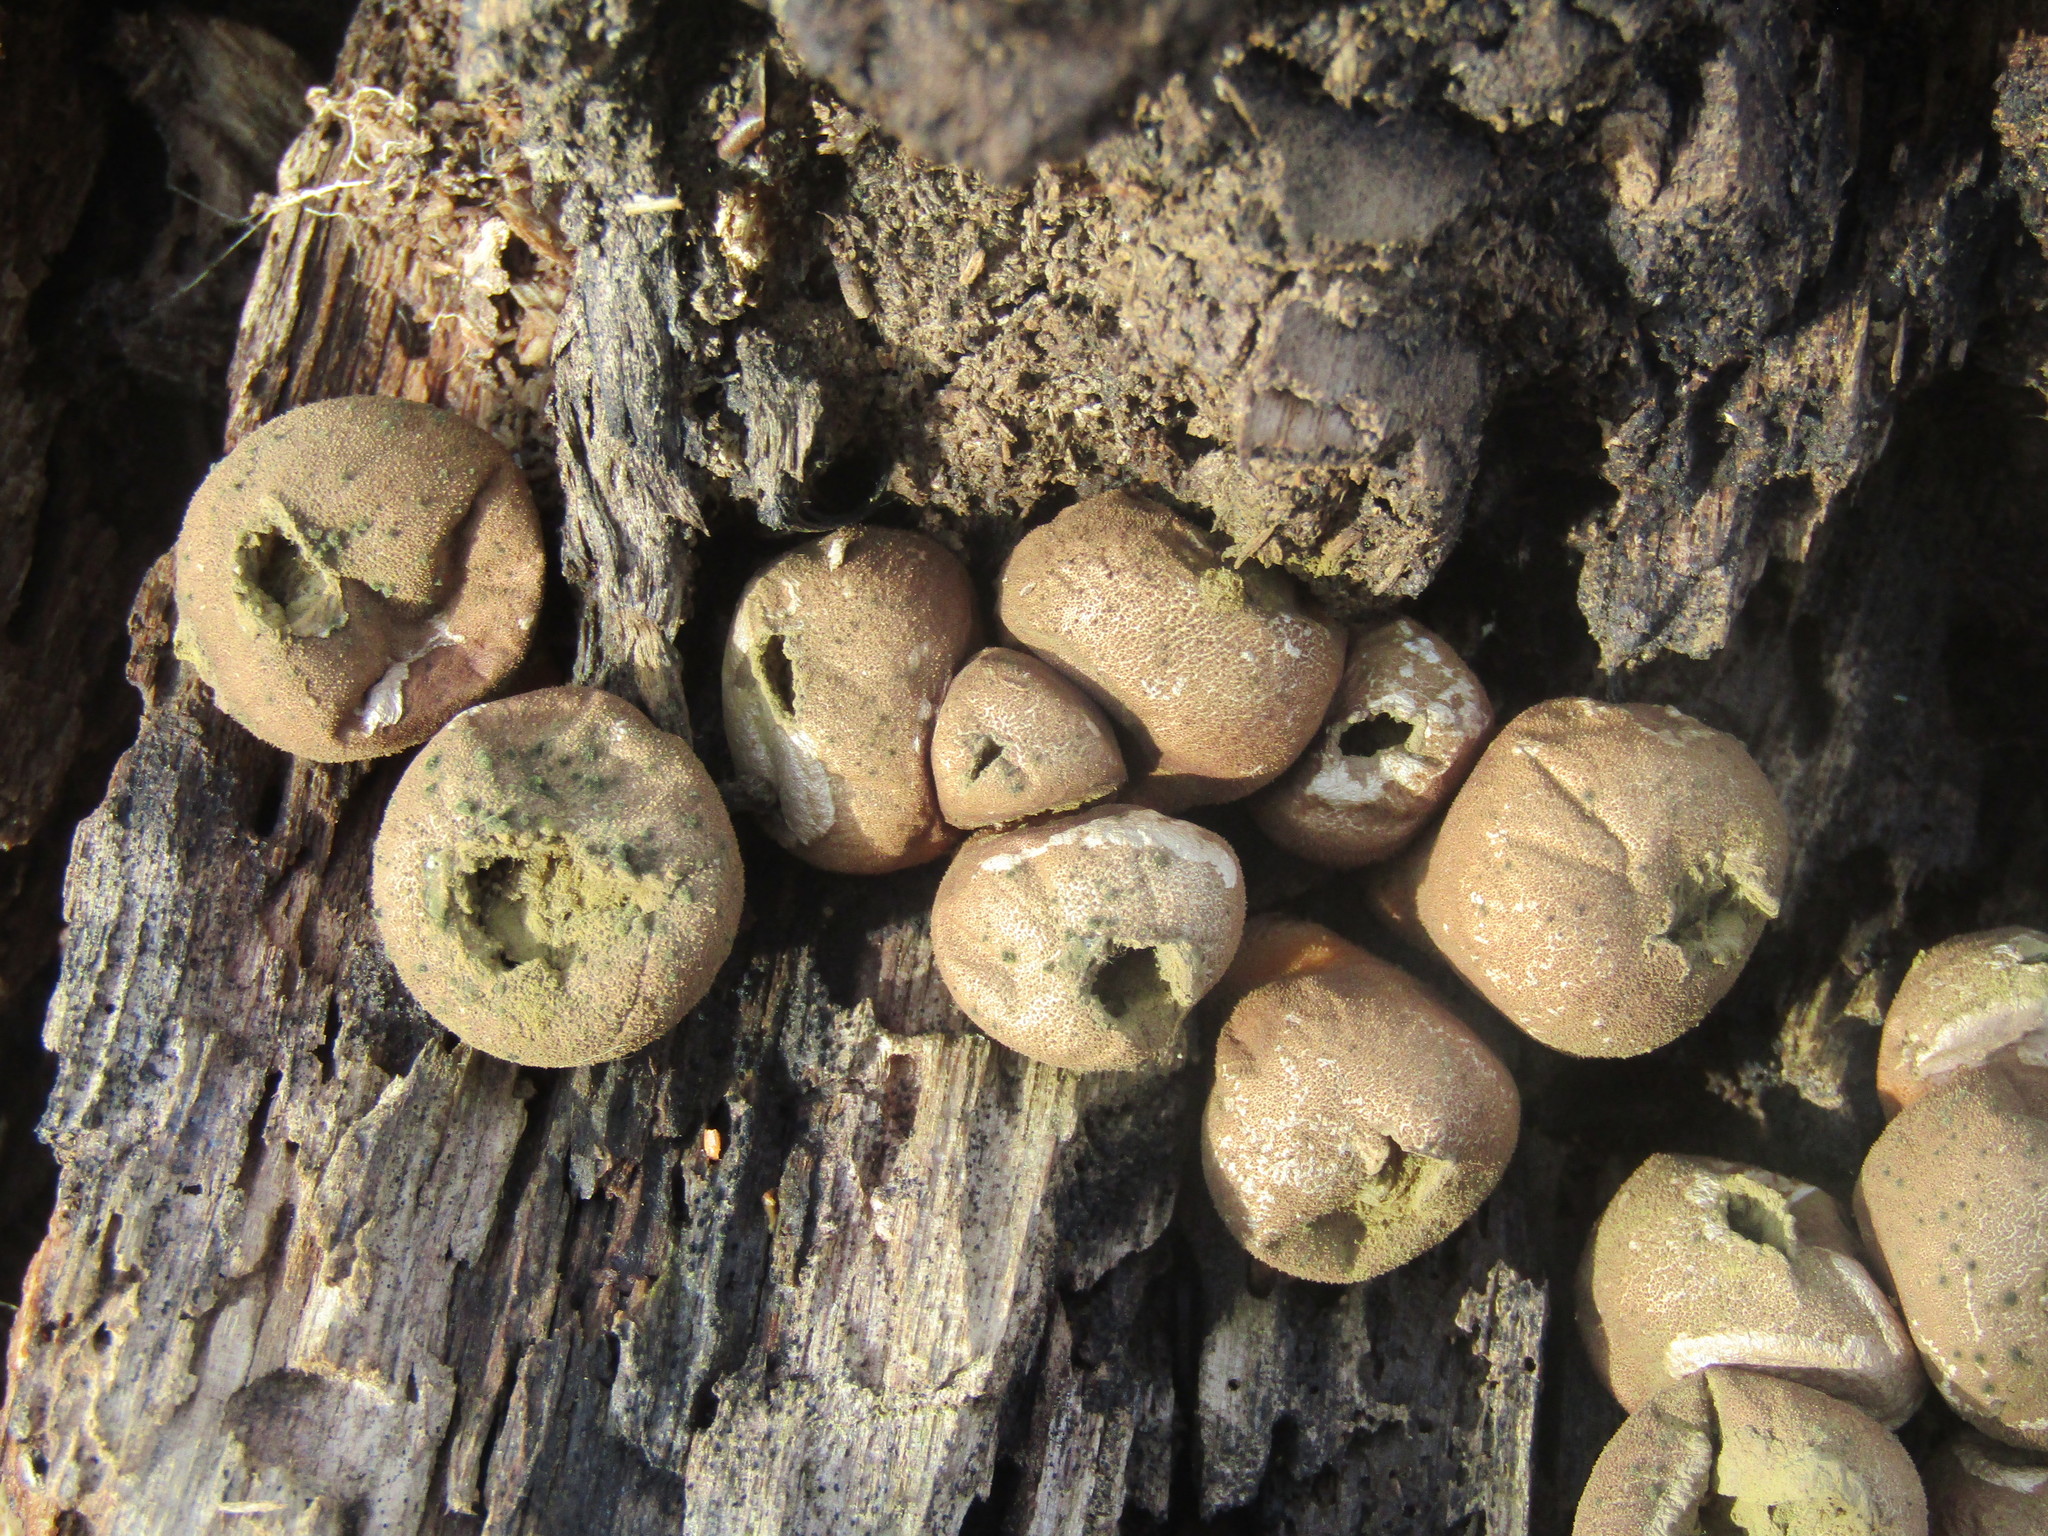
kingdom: Fungi
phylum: Basidiomycota
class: Agaricomycetes
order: Agaricales
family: Lycoperdaceae
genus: Apioperdon
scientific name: Apioperdon pyriforme
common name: Pear-shaped puffball
